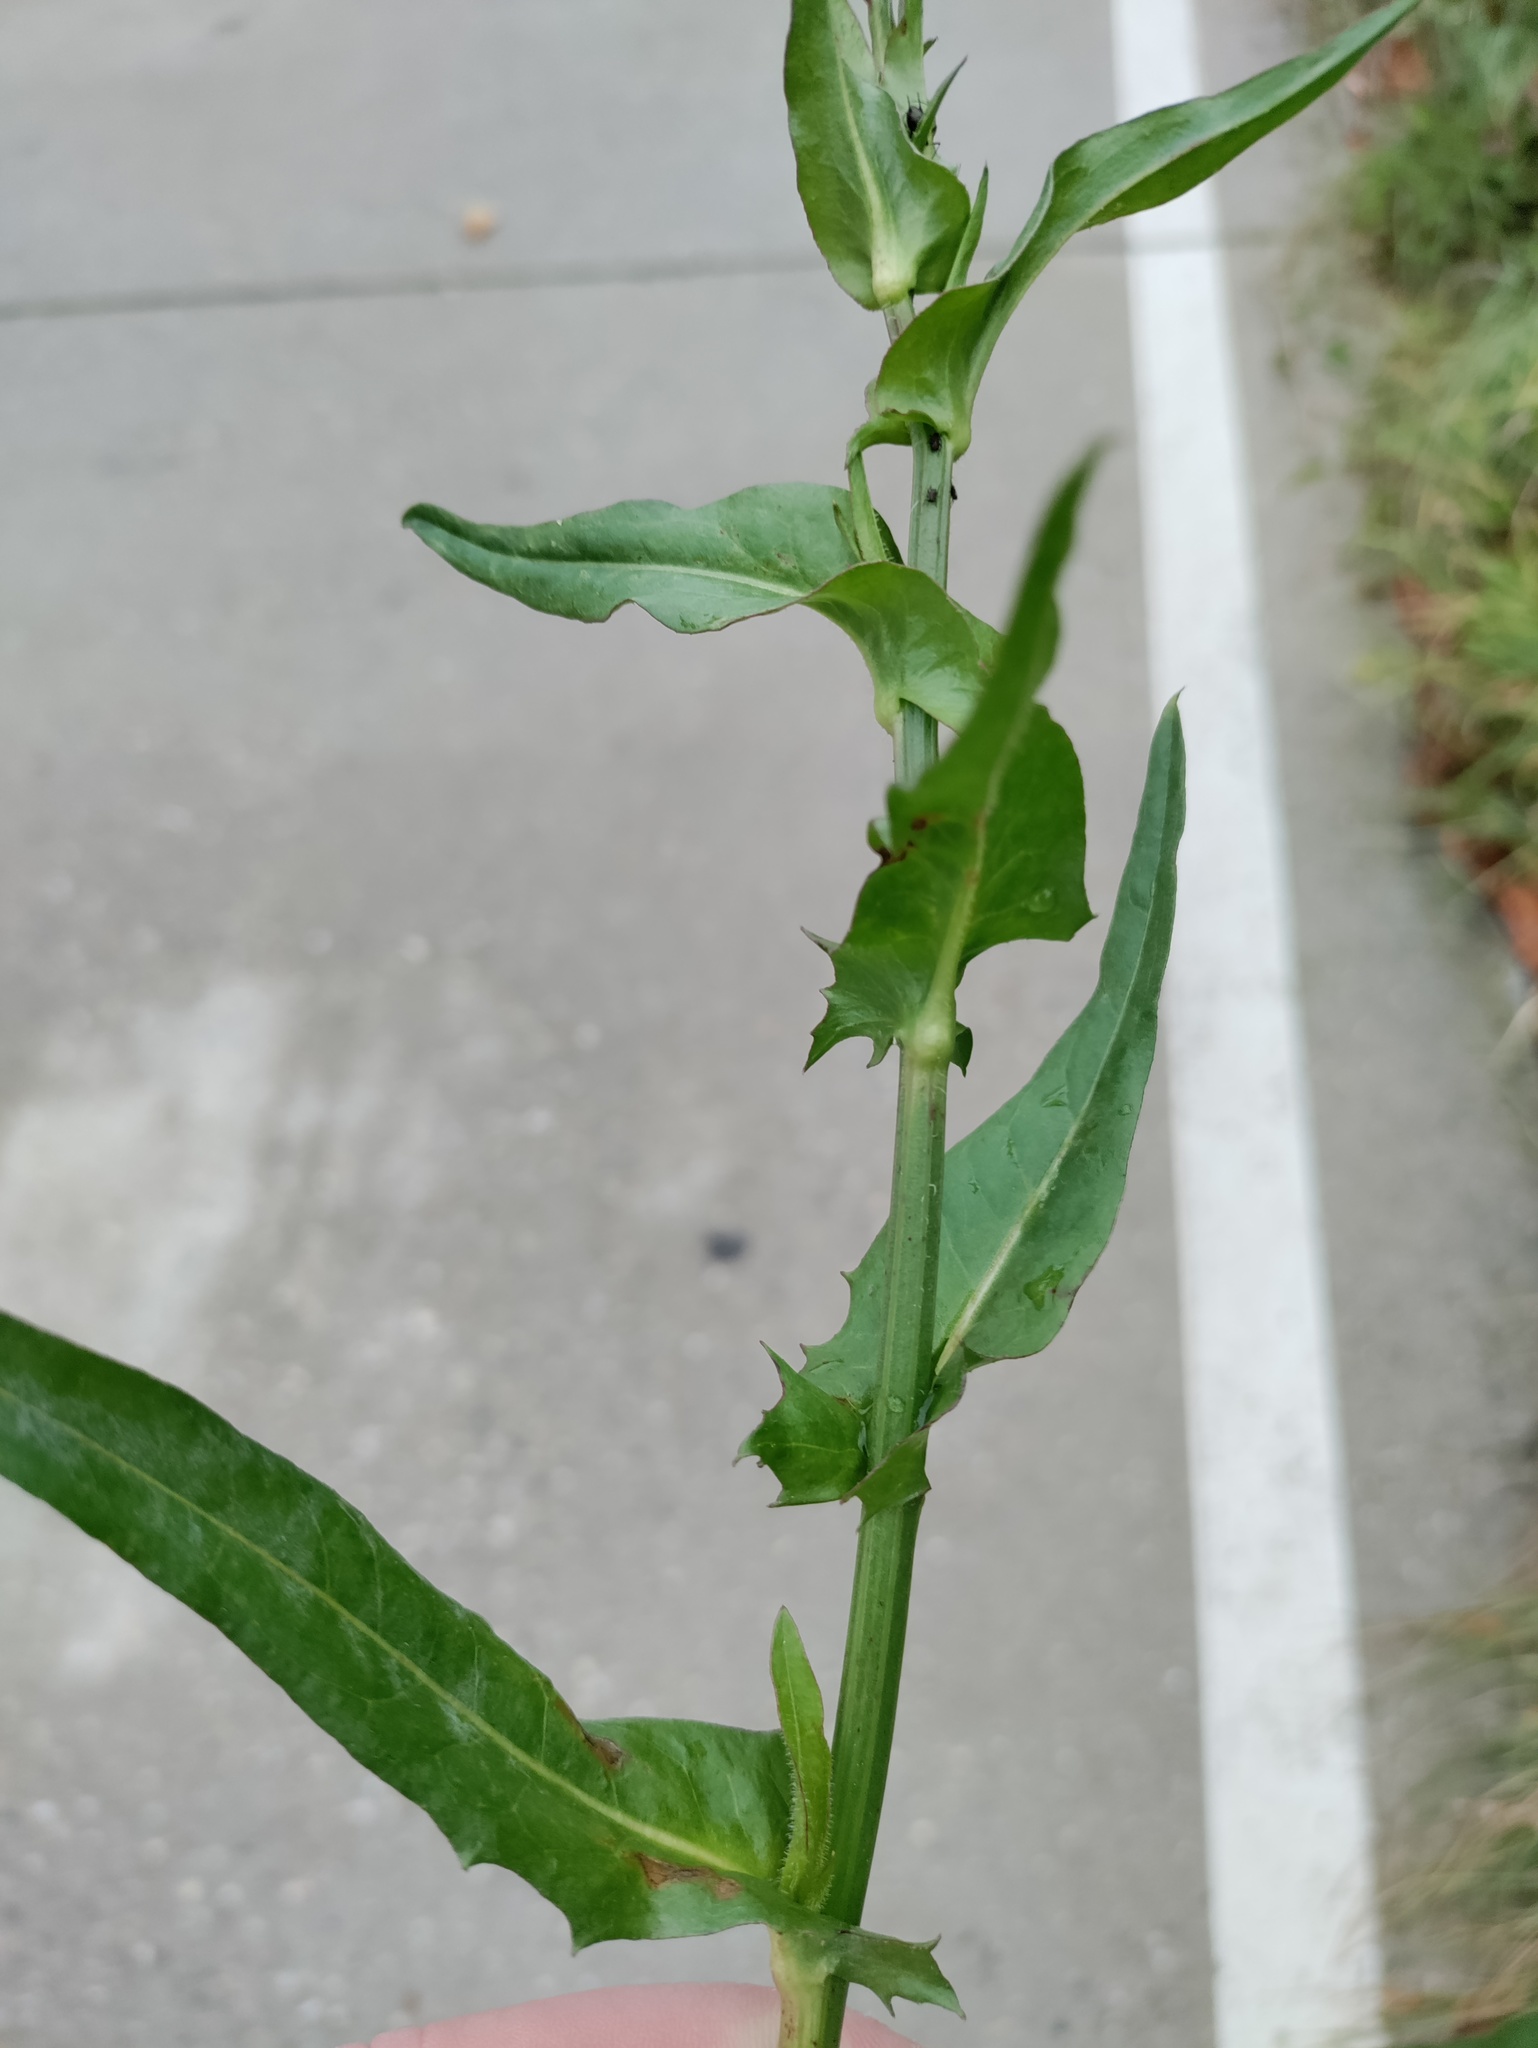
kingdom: Plantae
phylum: Tracheophyta
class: Magnoliopsida
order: Asterales
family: Asteraceae
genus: Cichorium
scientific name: Cichorium intybus
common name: Chicory
